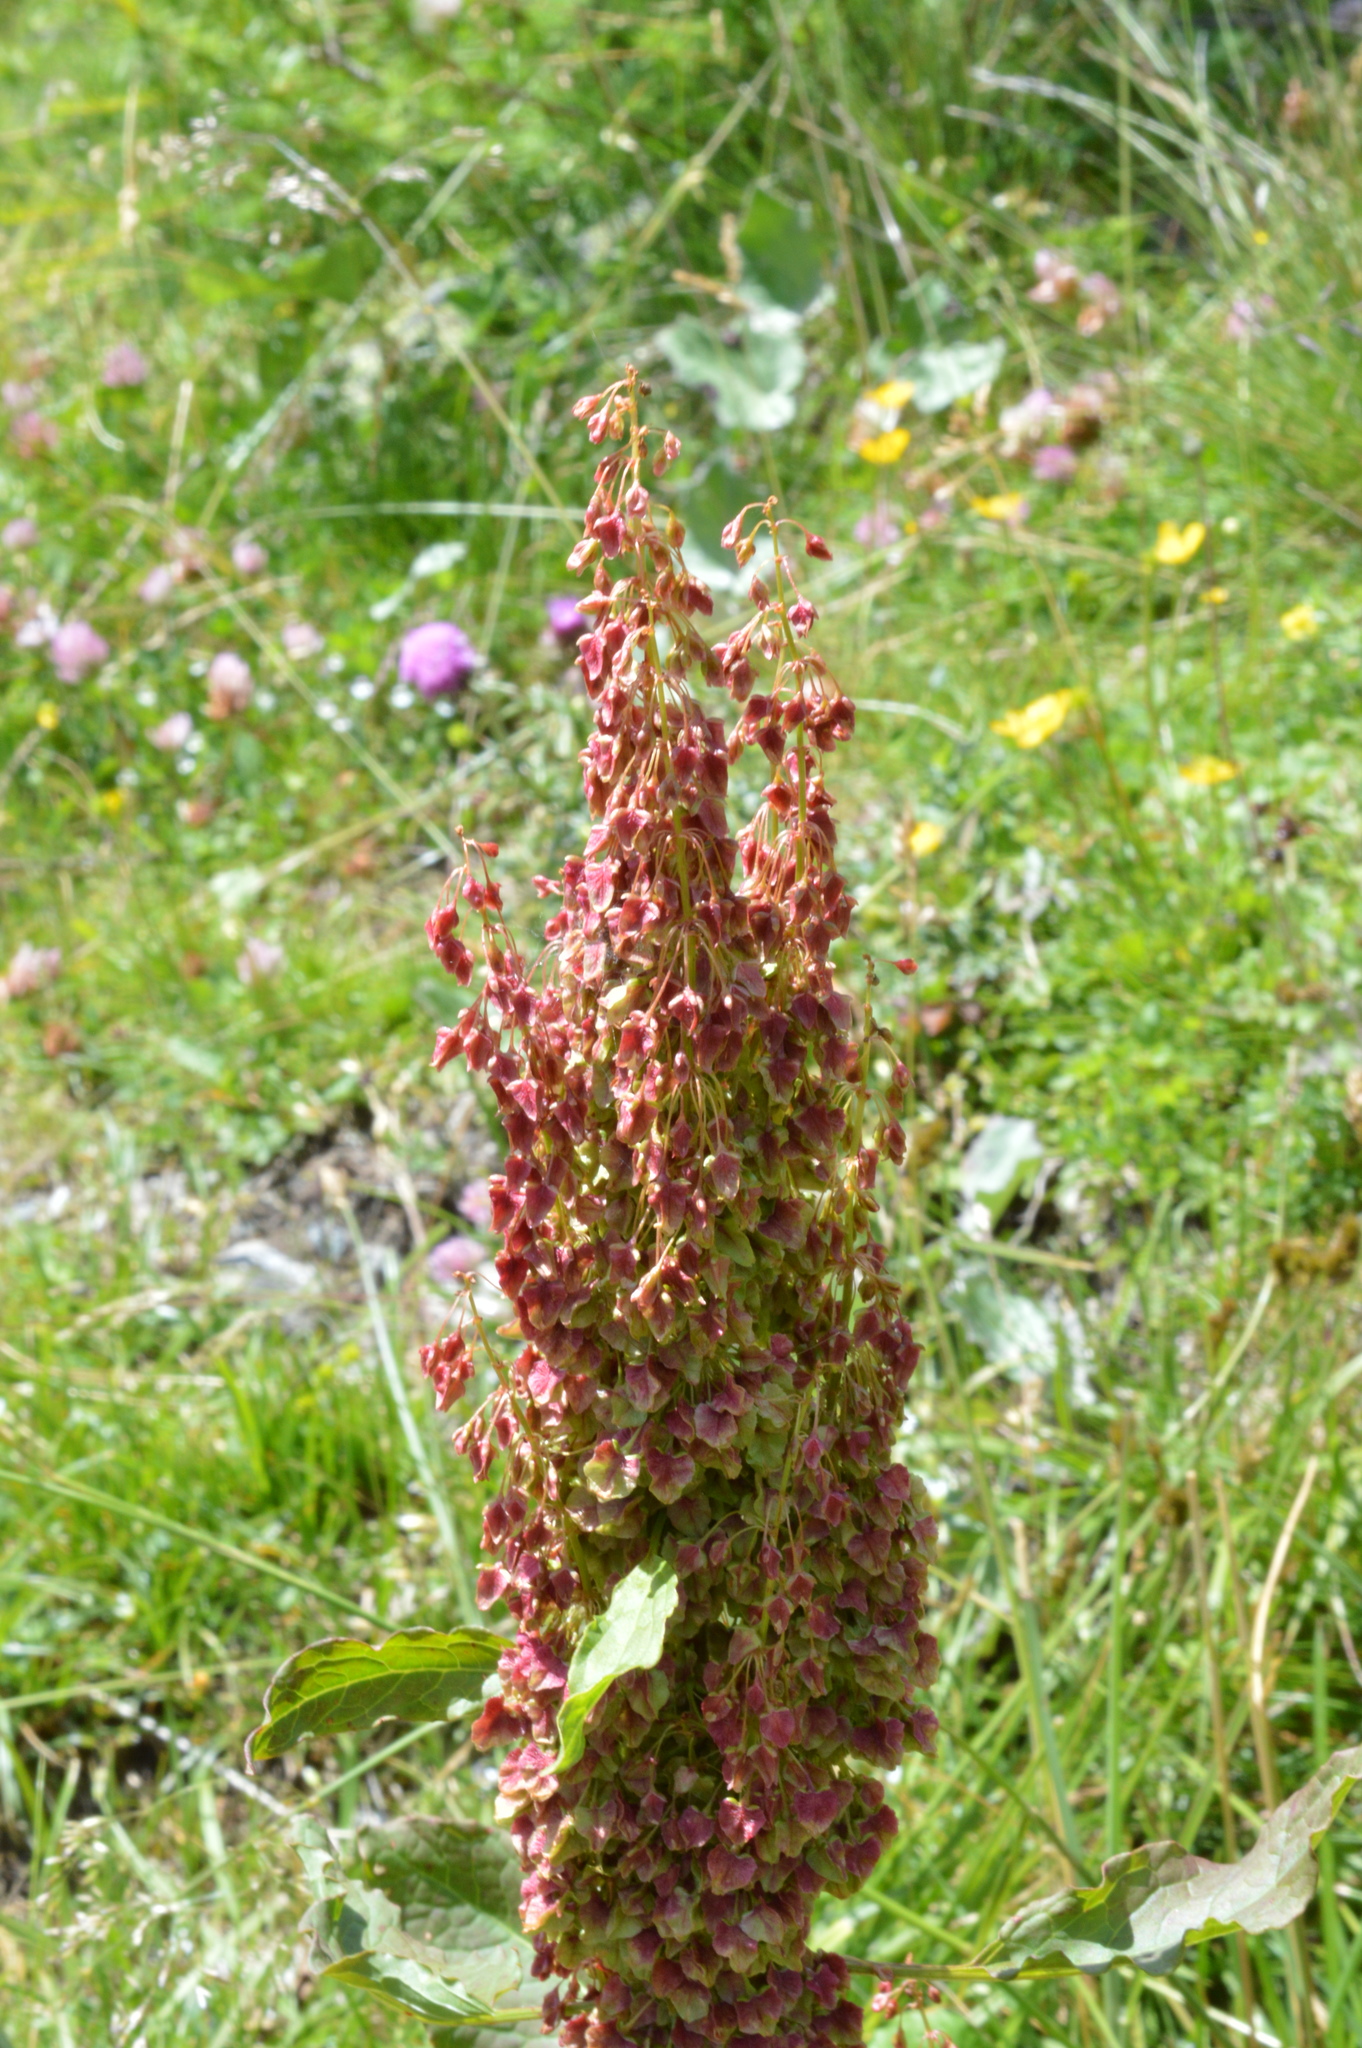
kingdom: Plantae
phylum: Tracheophyta
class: Magnoliopsida
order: Caryophyllales
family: Polygonaceae
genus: Rumex
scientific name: Rumex alpinus
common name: Alpine dock
